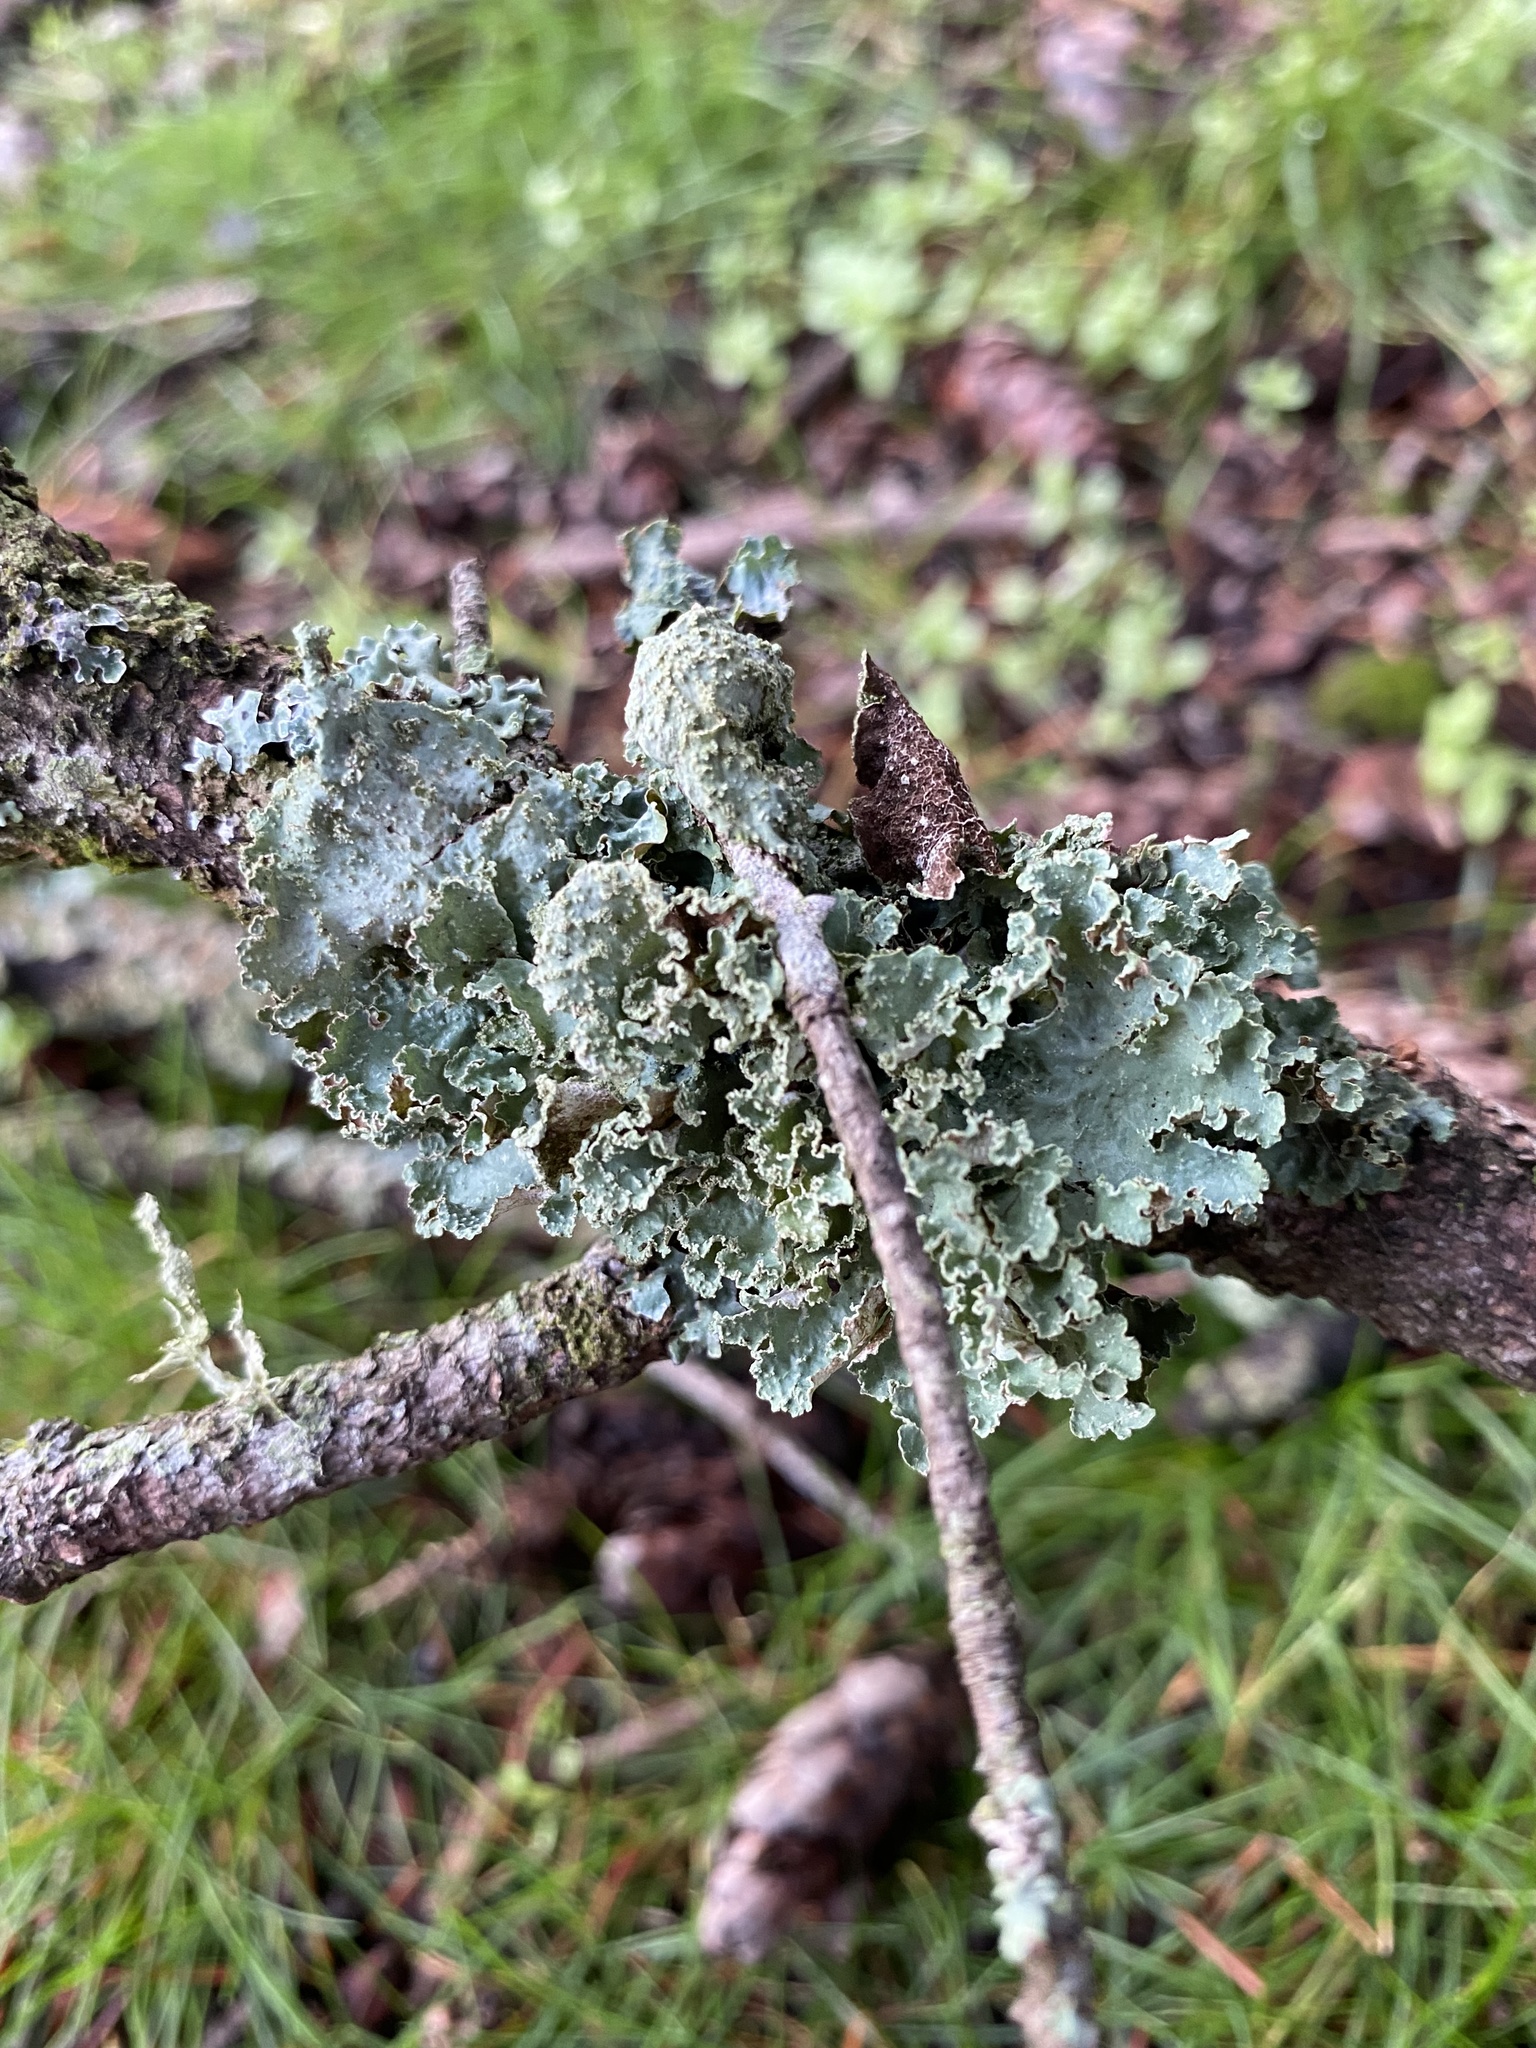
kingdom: Fungi
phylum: Ascomycota
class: Lecanoromycetes
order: Lecanorales
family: Parmeliaceae
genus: Platismatia
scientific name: Platismatia glauca
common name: Varied rag lichen
